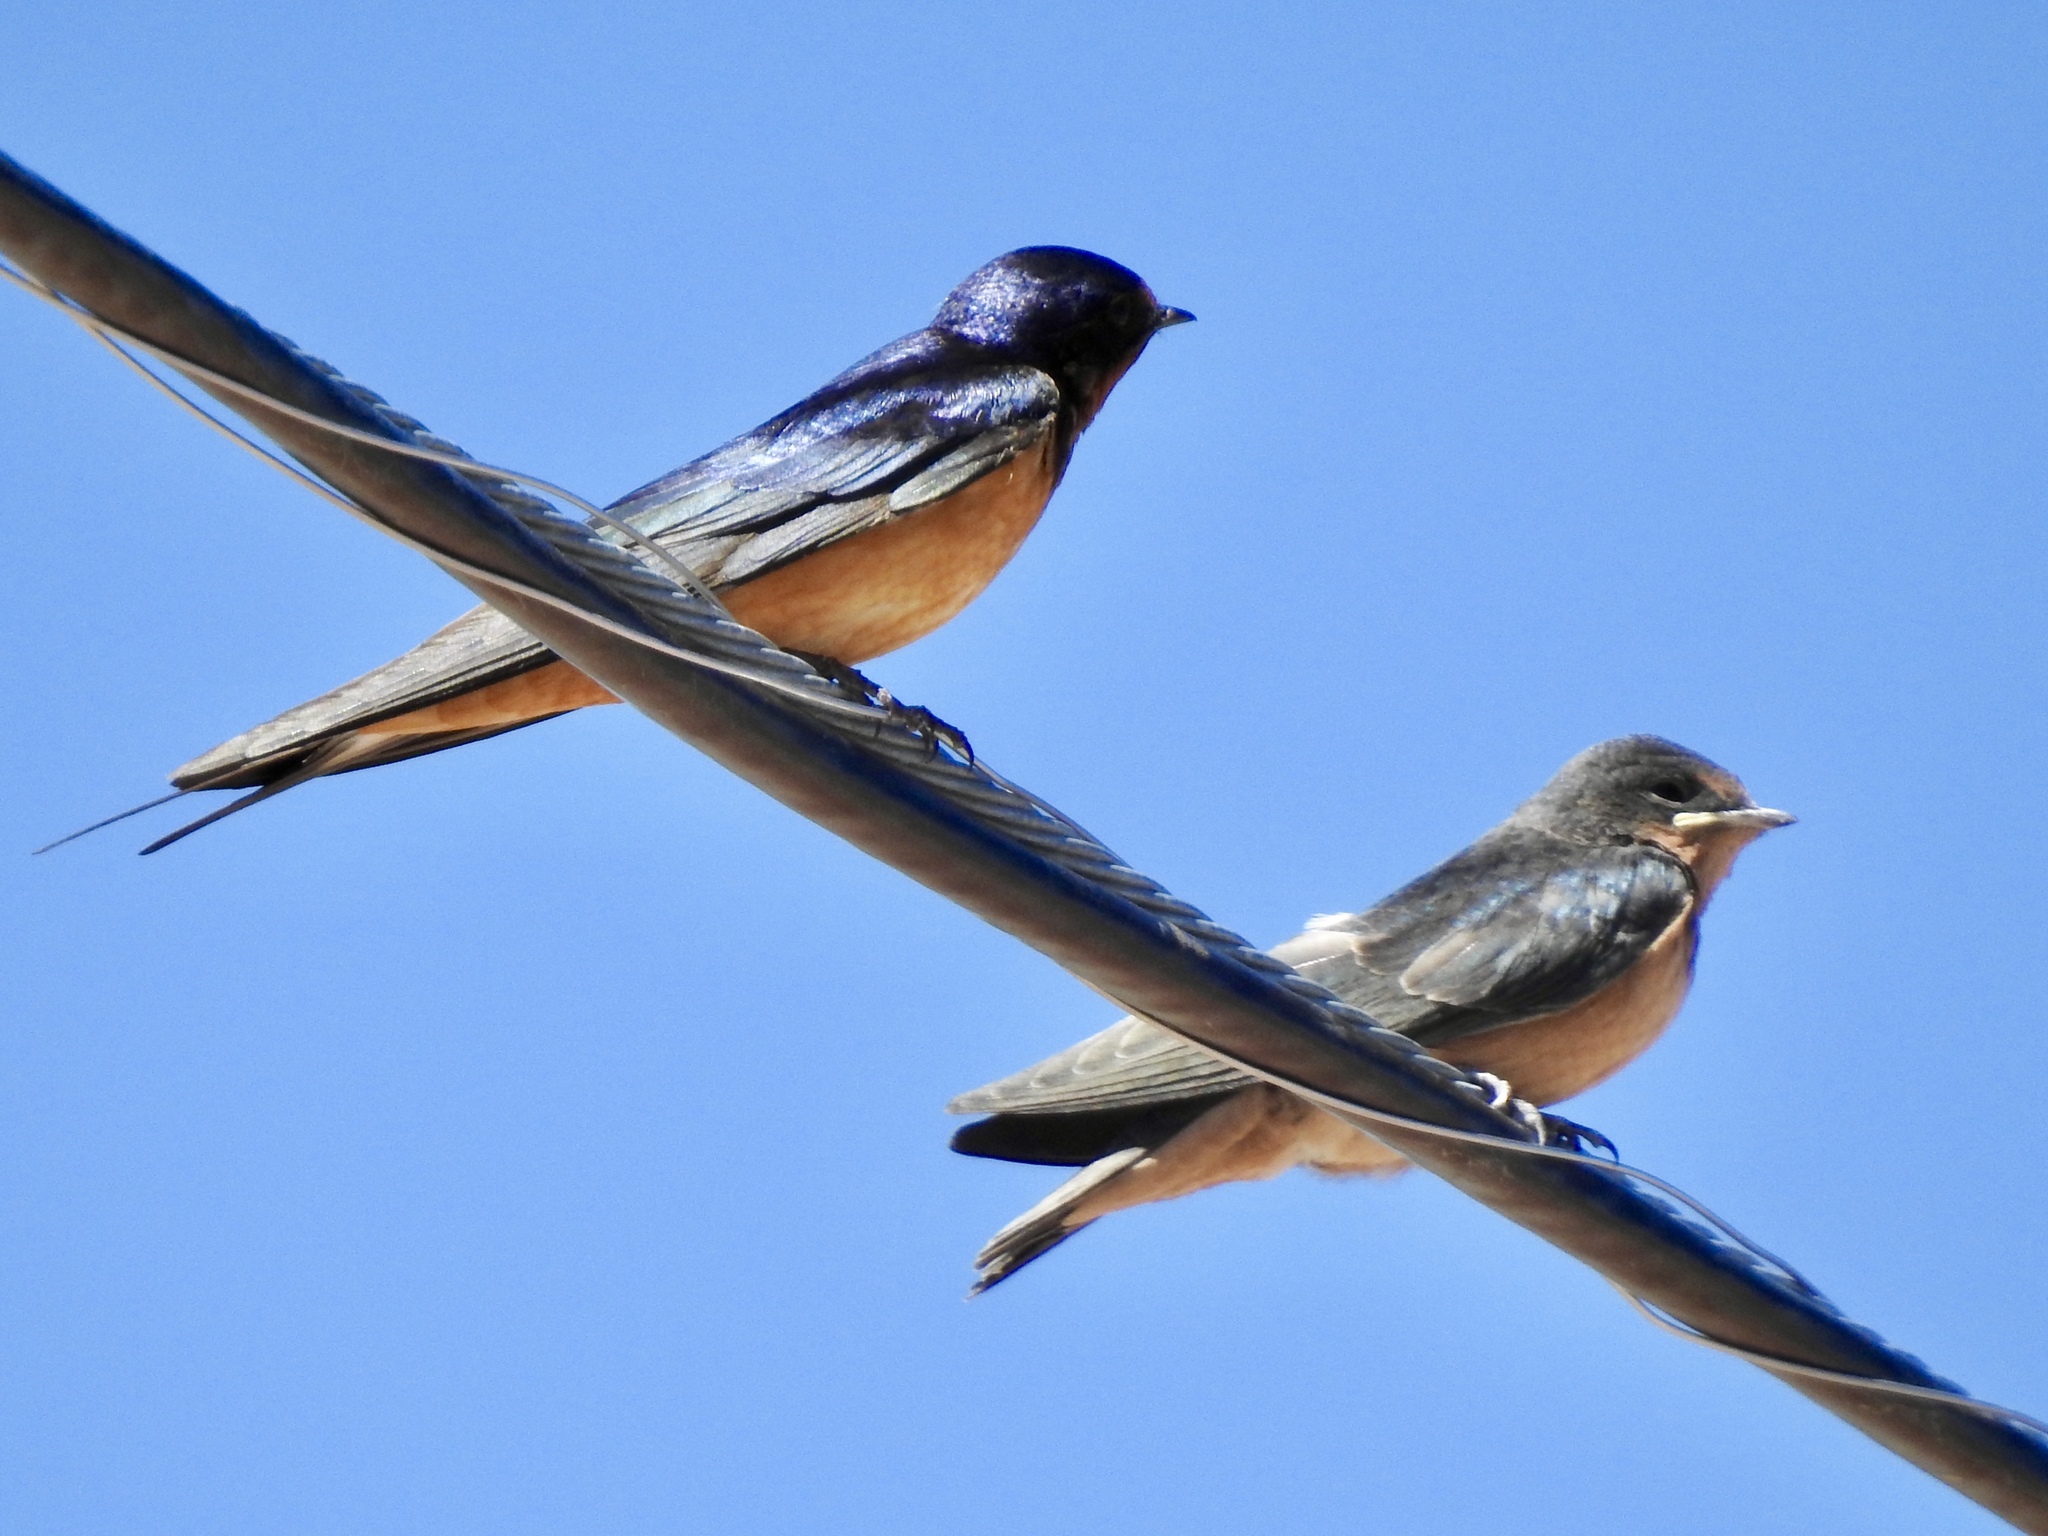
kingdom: Animalia
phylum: Chordata
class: Aves
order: Passeriformes
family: Hirundinidae
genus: Hirundo
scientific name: Hirundo rustica
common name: Barn swallow
